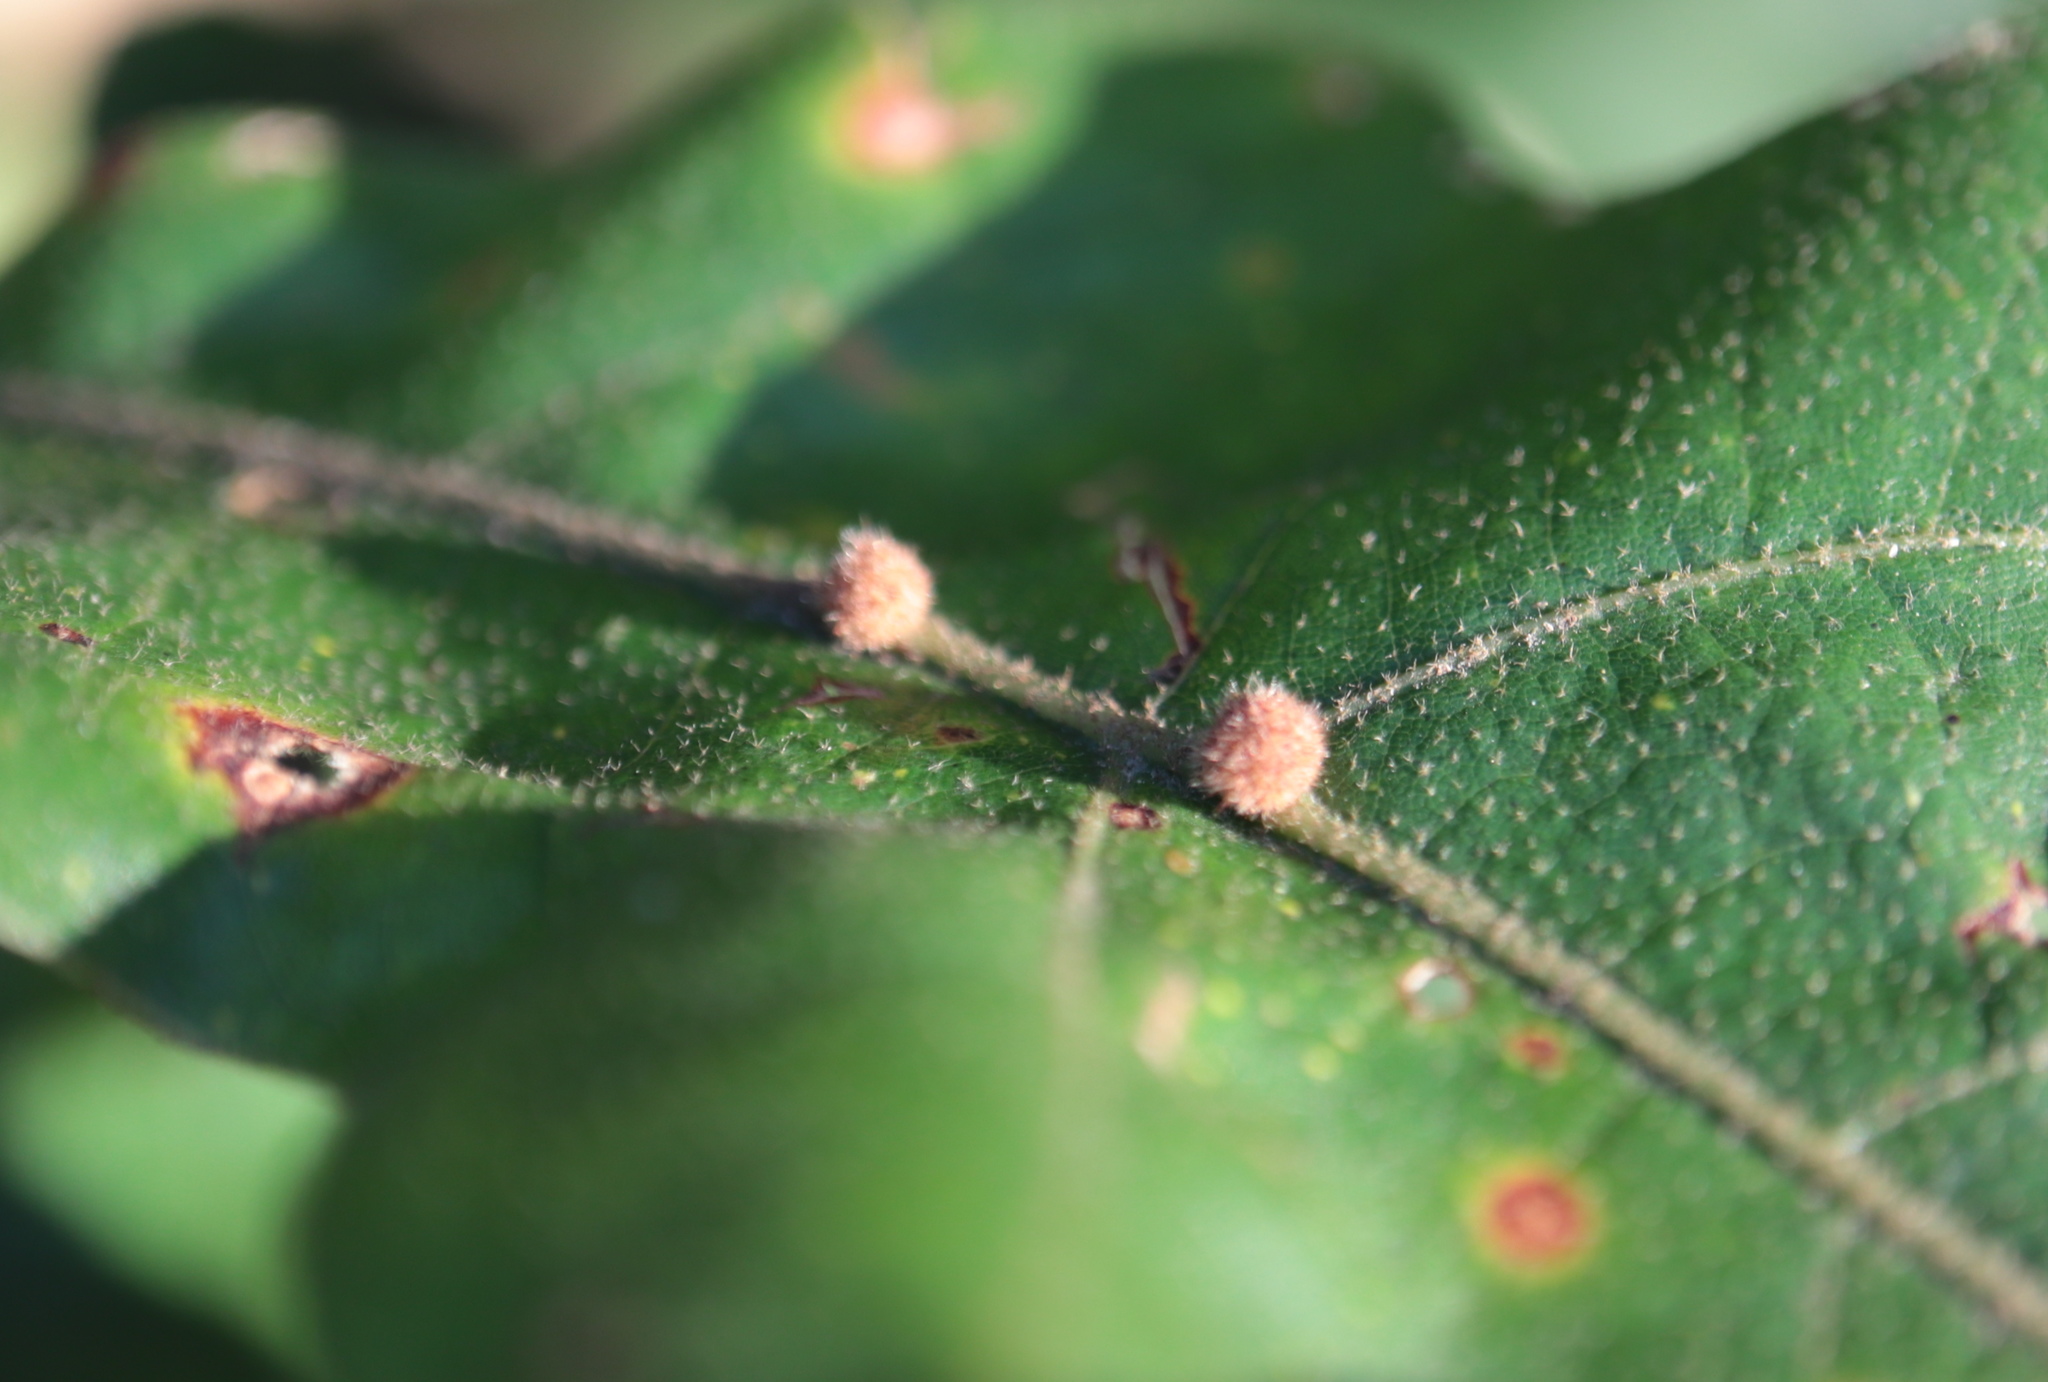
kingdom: Animalia
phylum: Arthropoda
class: Insecta
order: Hymenoptera
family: Cynipidae
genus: Biorhiza
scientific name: Biorhiza Sphaeroteras carolina
